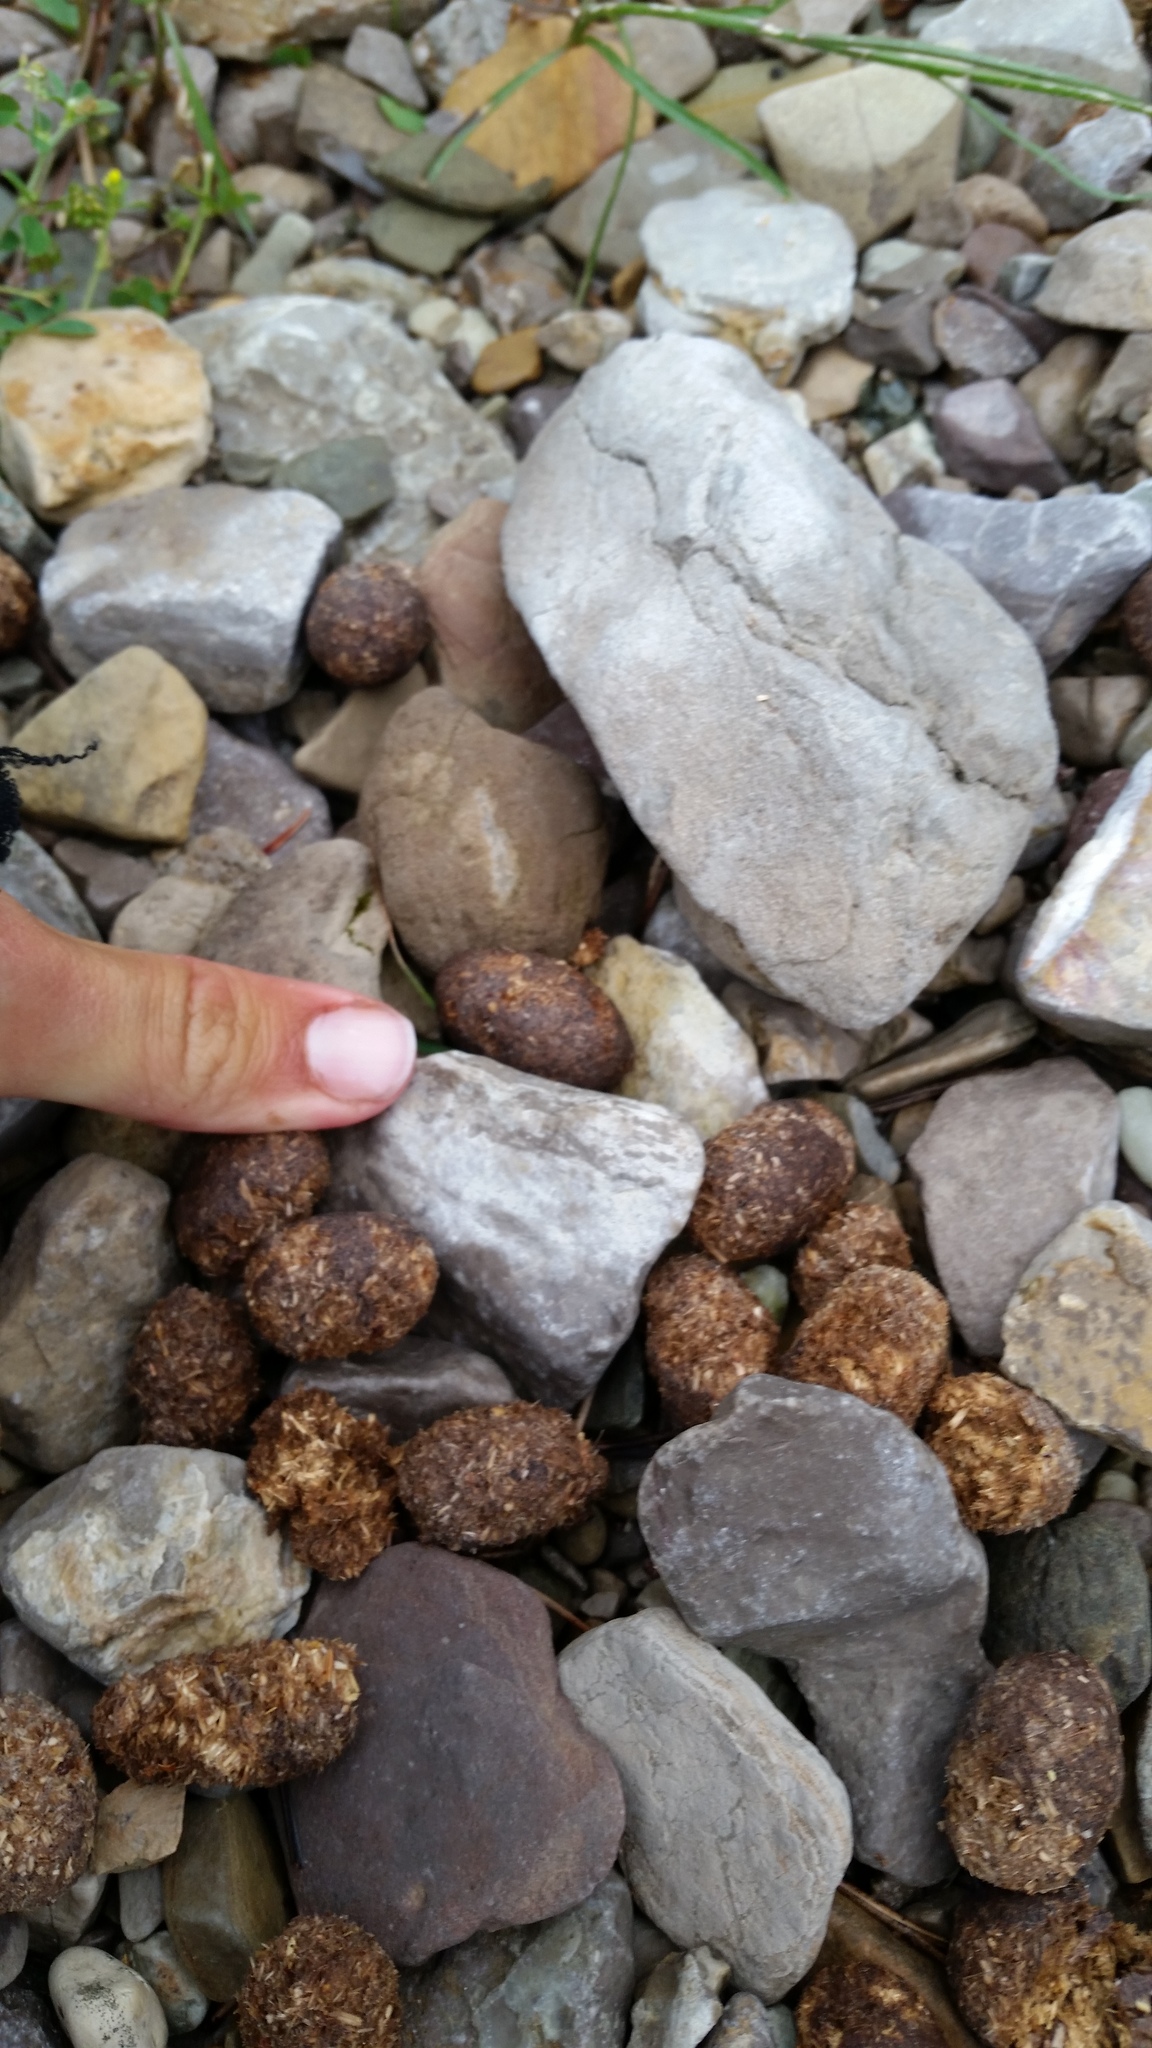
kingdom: Animalia
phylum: Chordata
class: Mammalia
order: Artiodactyla
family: Cervidae
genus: Alces
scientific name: Alces alces
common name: Moose
